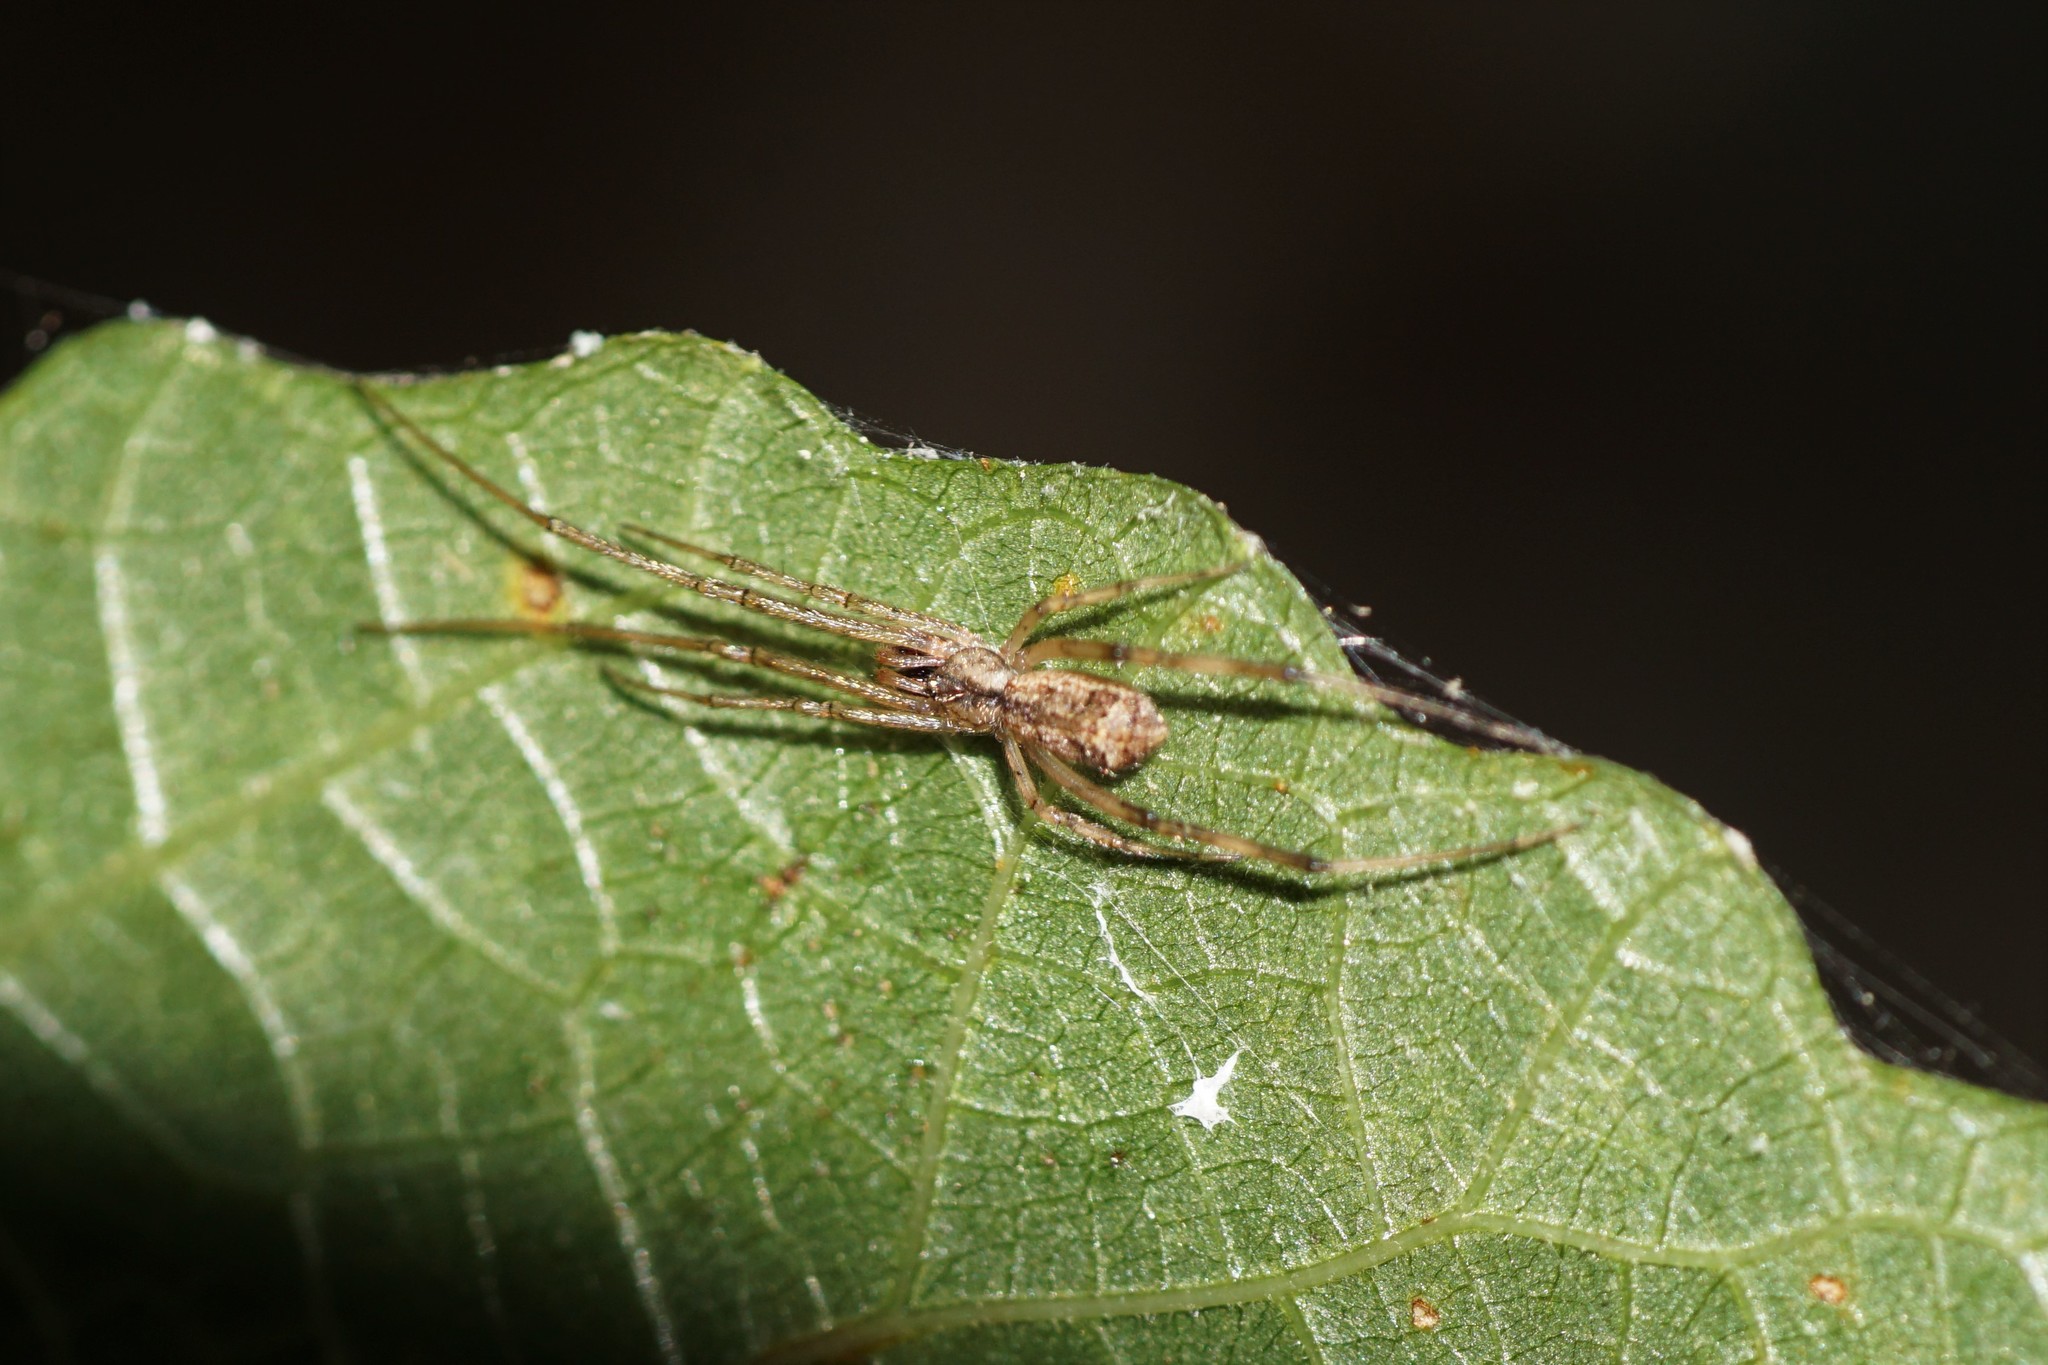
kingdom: Animalia
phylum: Arthropoda
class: Arachnida
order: Araneae
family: Theridiidae
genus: Episinus
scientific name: Episinus maculipes
